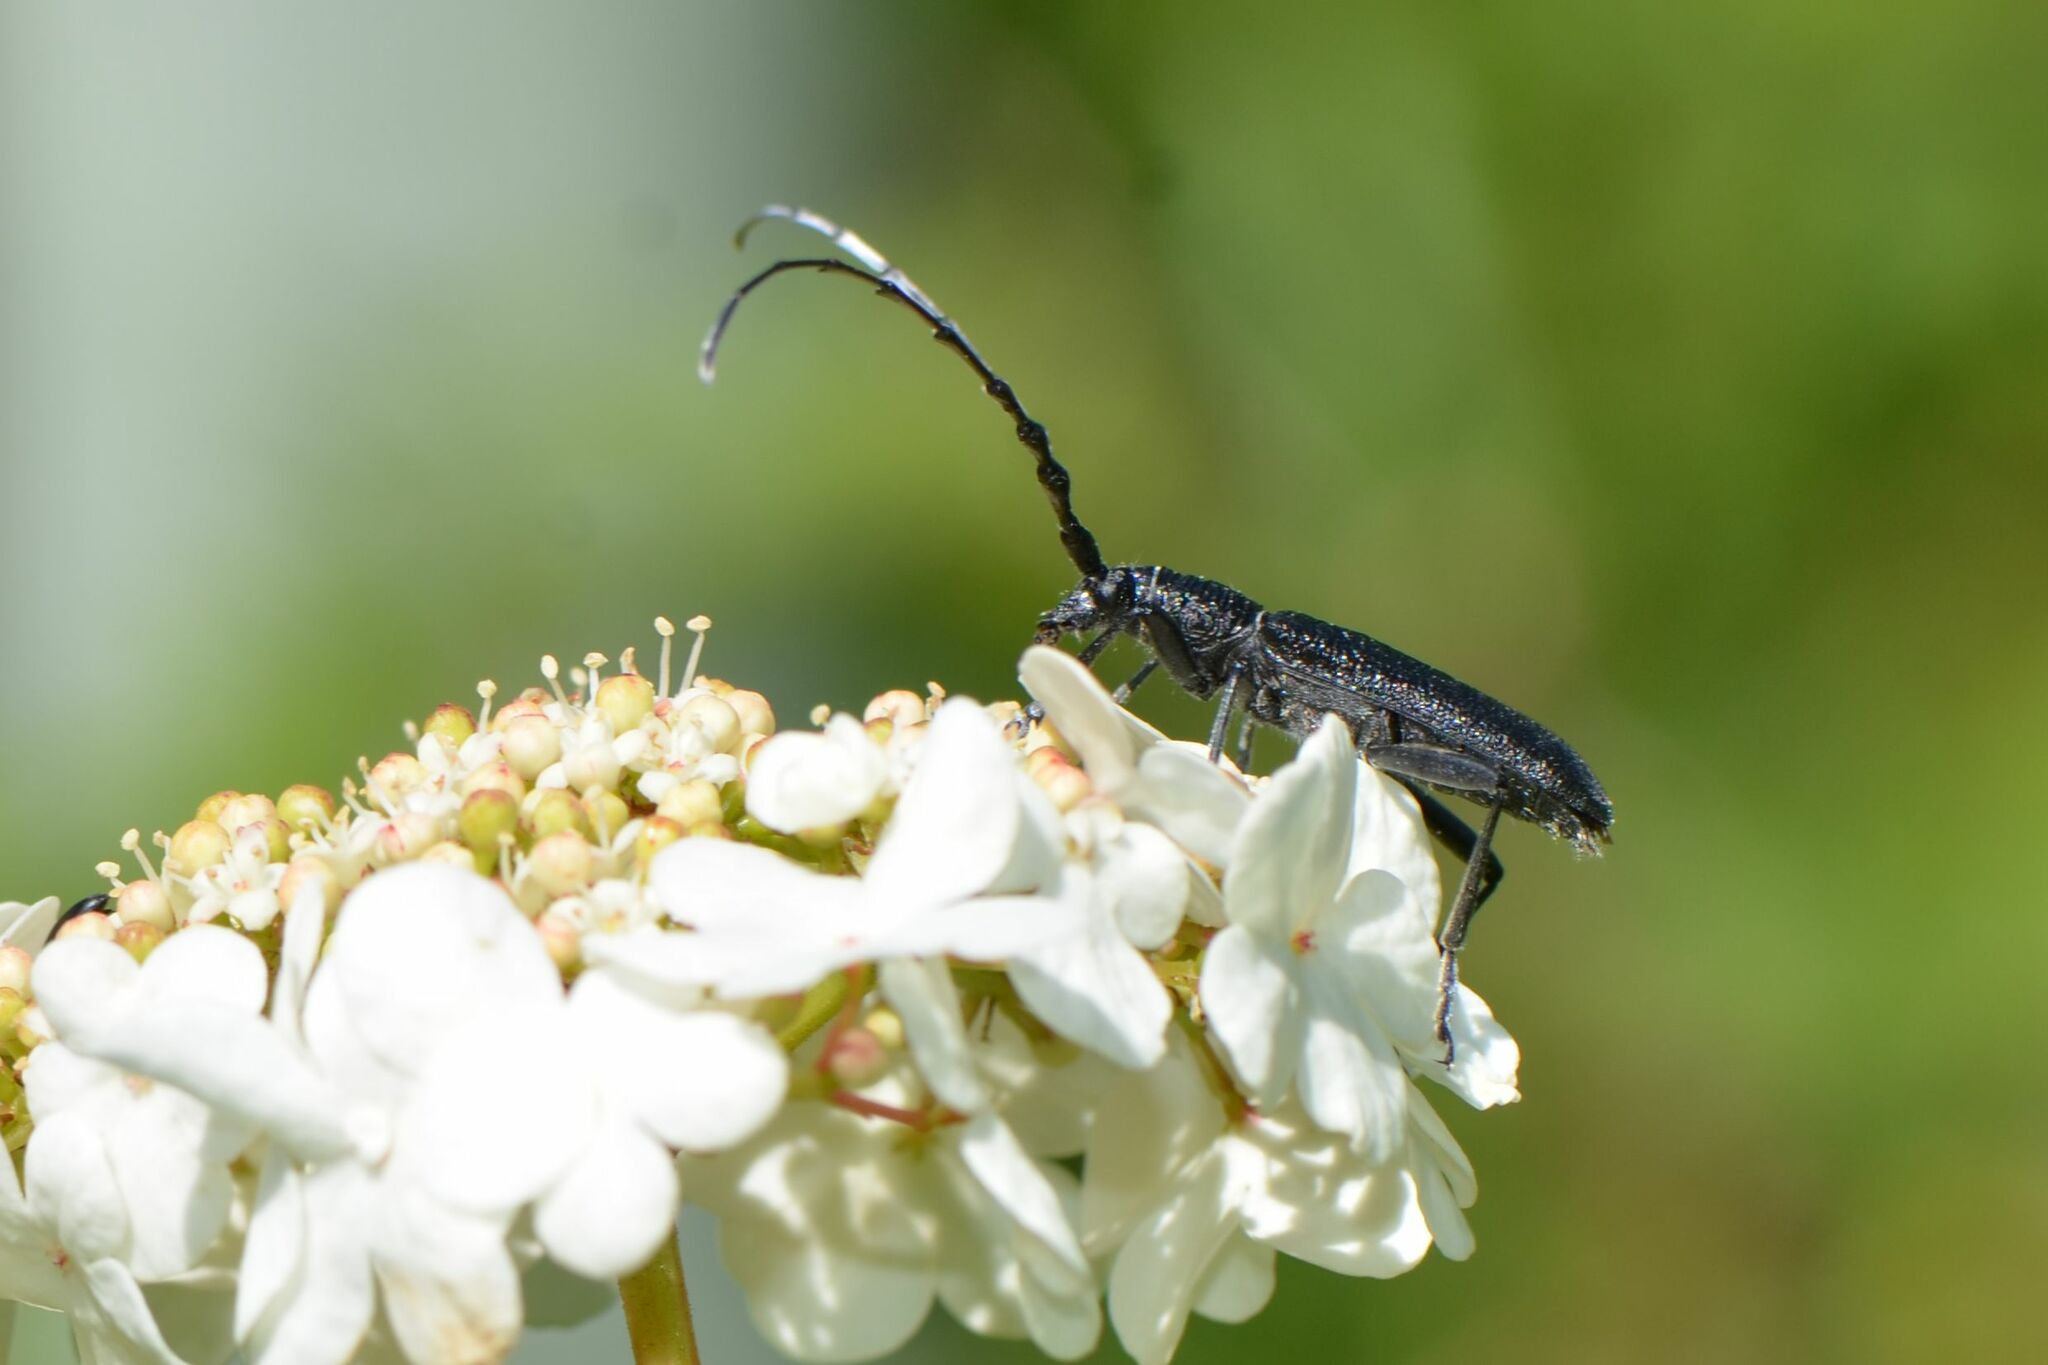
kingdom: Animalia
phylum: Arthropoda
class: Insecta
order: Coleoptera
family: Cerambycidae
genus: Cerambyx
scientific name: Cerambyx scopolii
